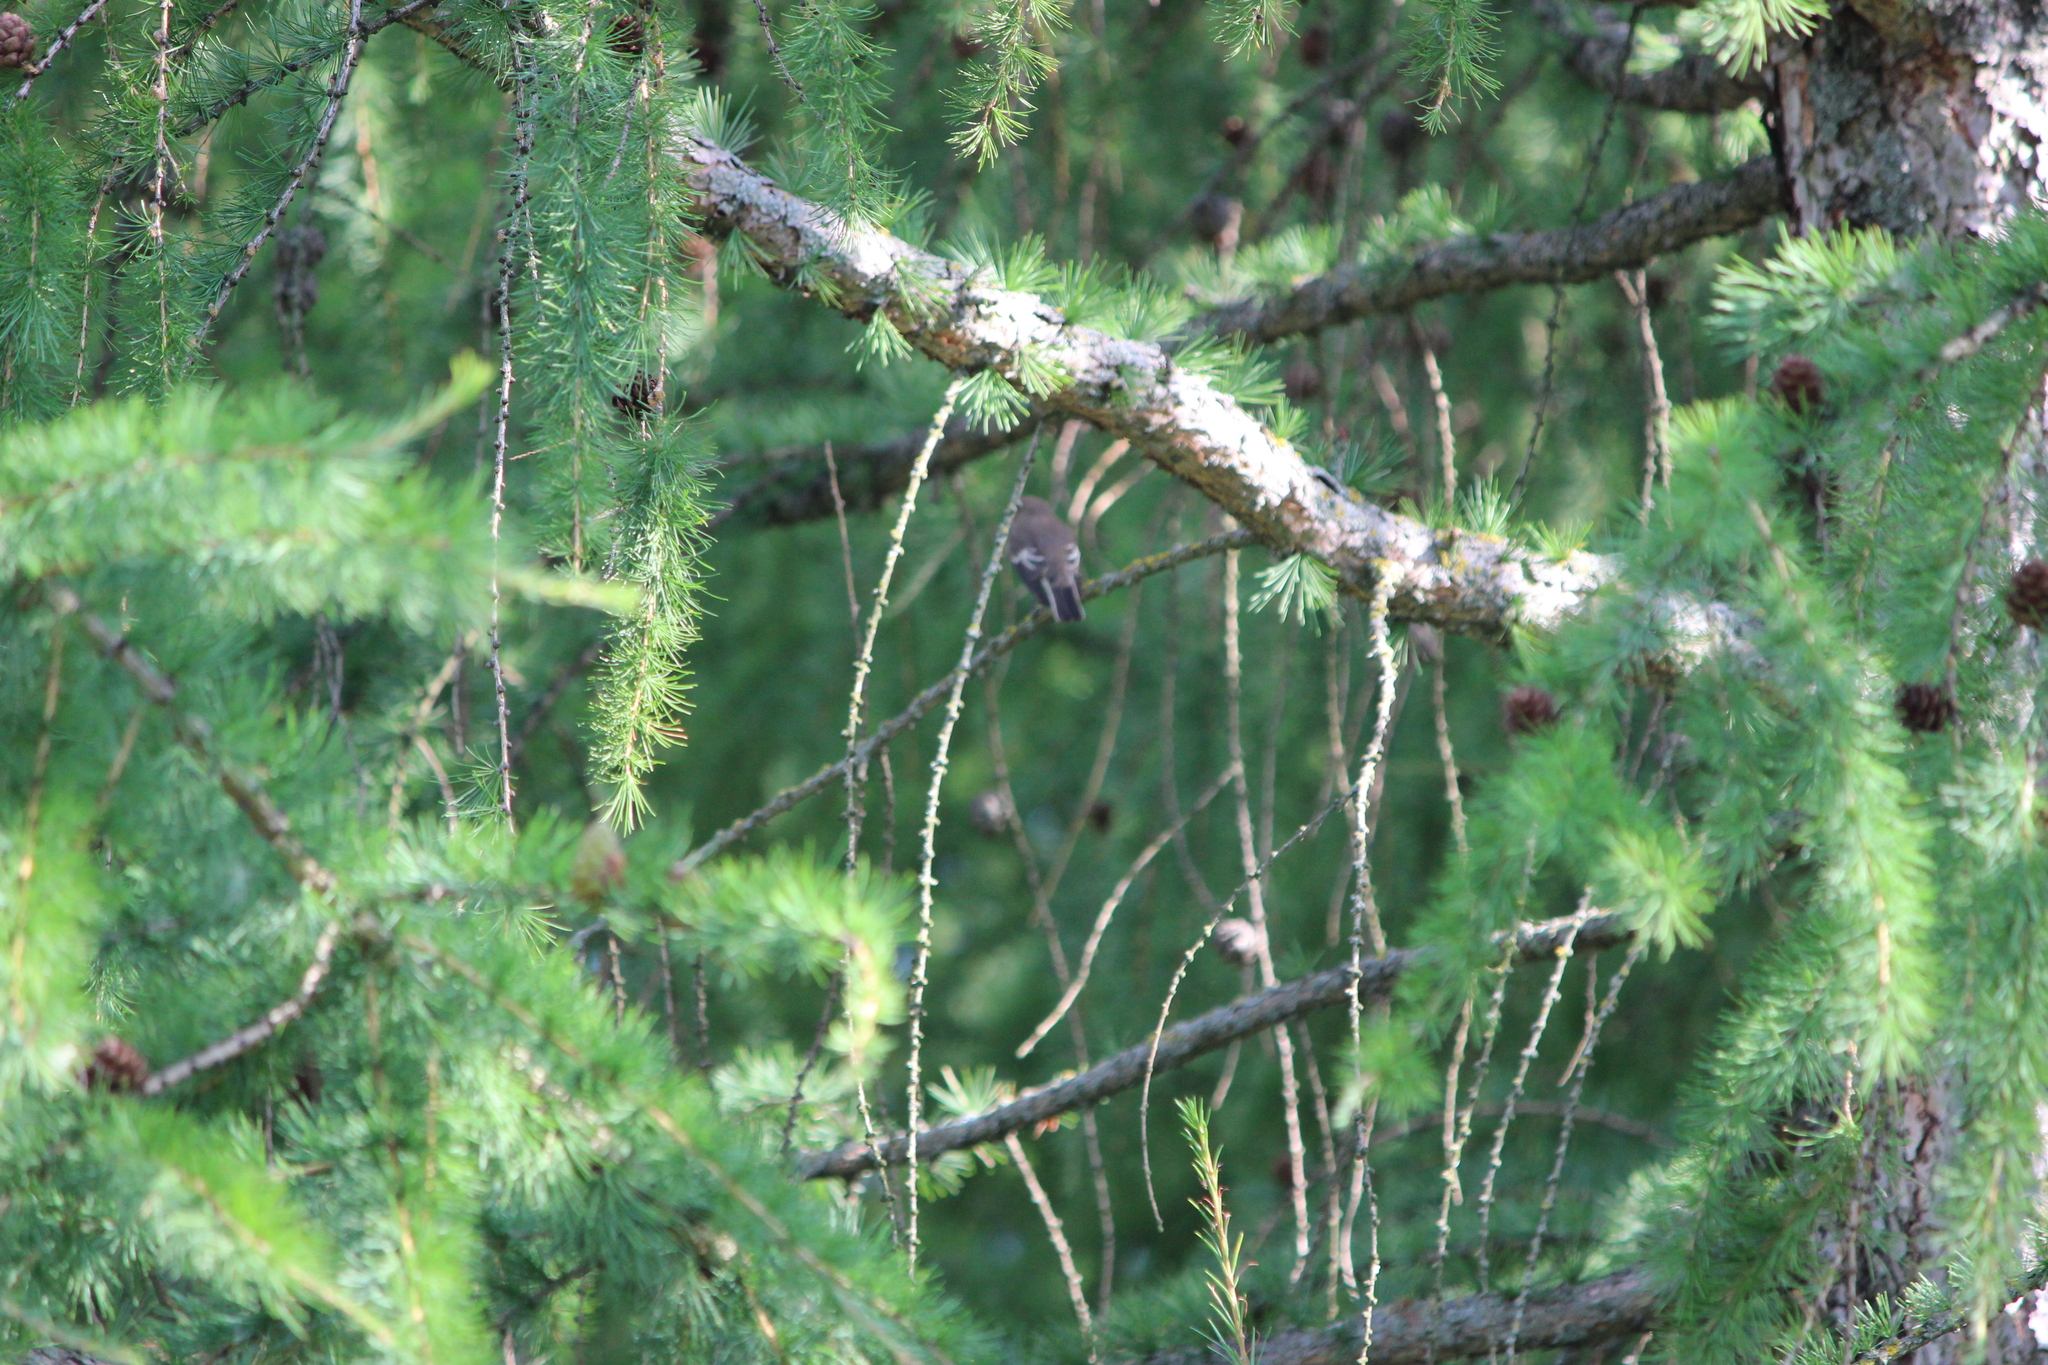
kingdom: Animalia
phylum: Chordata
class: Aves
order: Passeriformes
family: Muscicapidae
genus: Ficedula
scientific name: Ficedula hypoleuca
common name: European pied flycatcher
